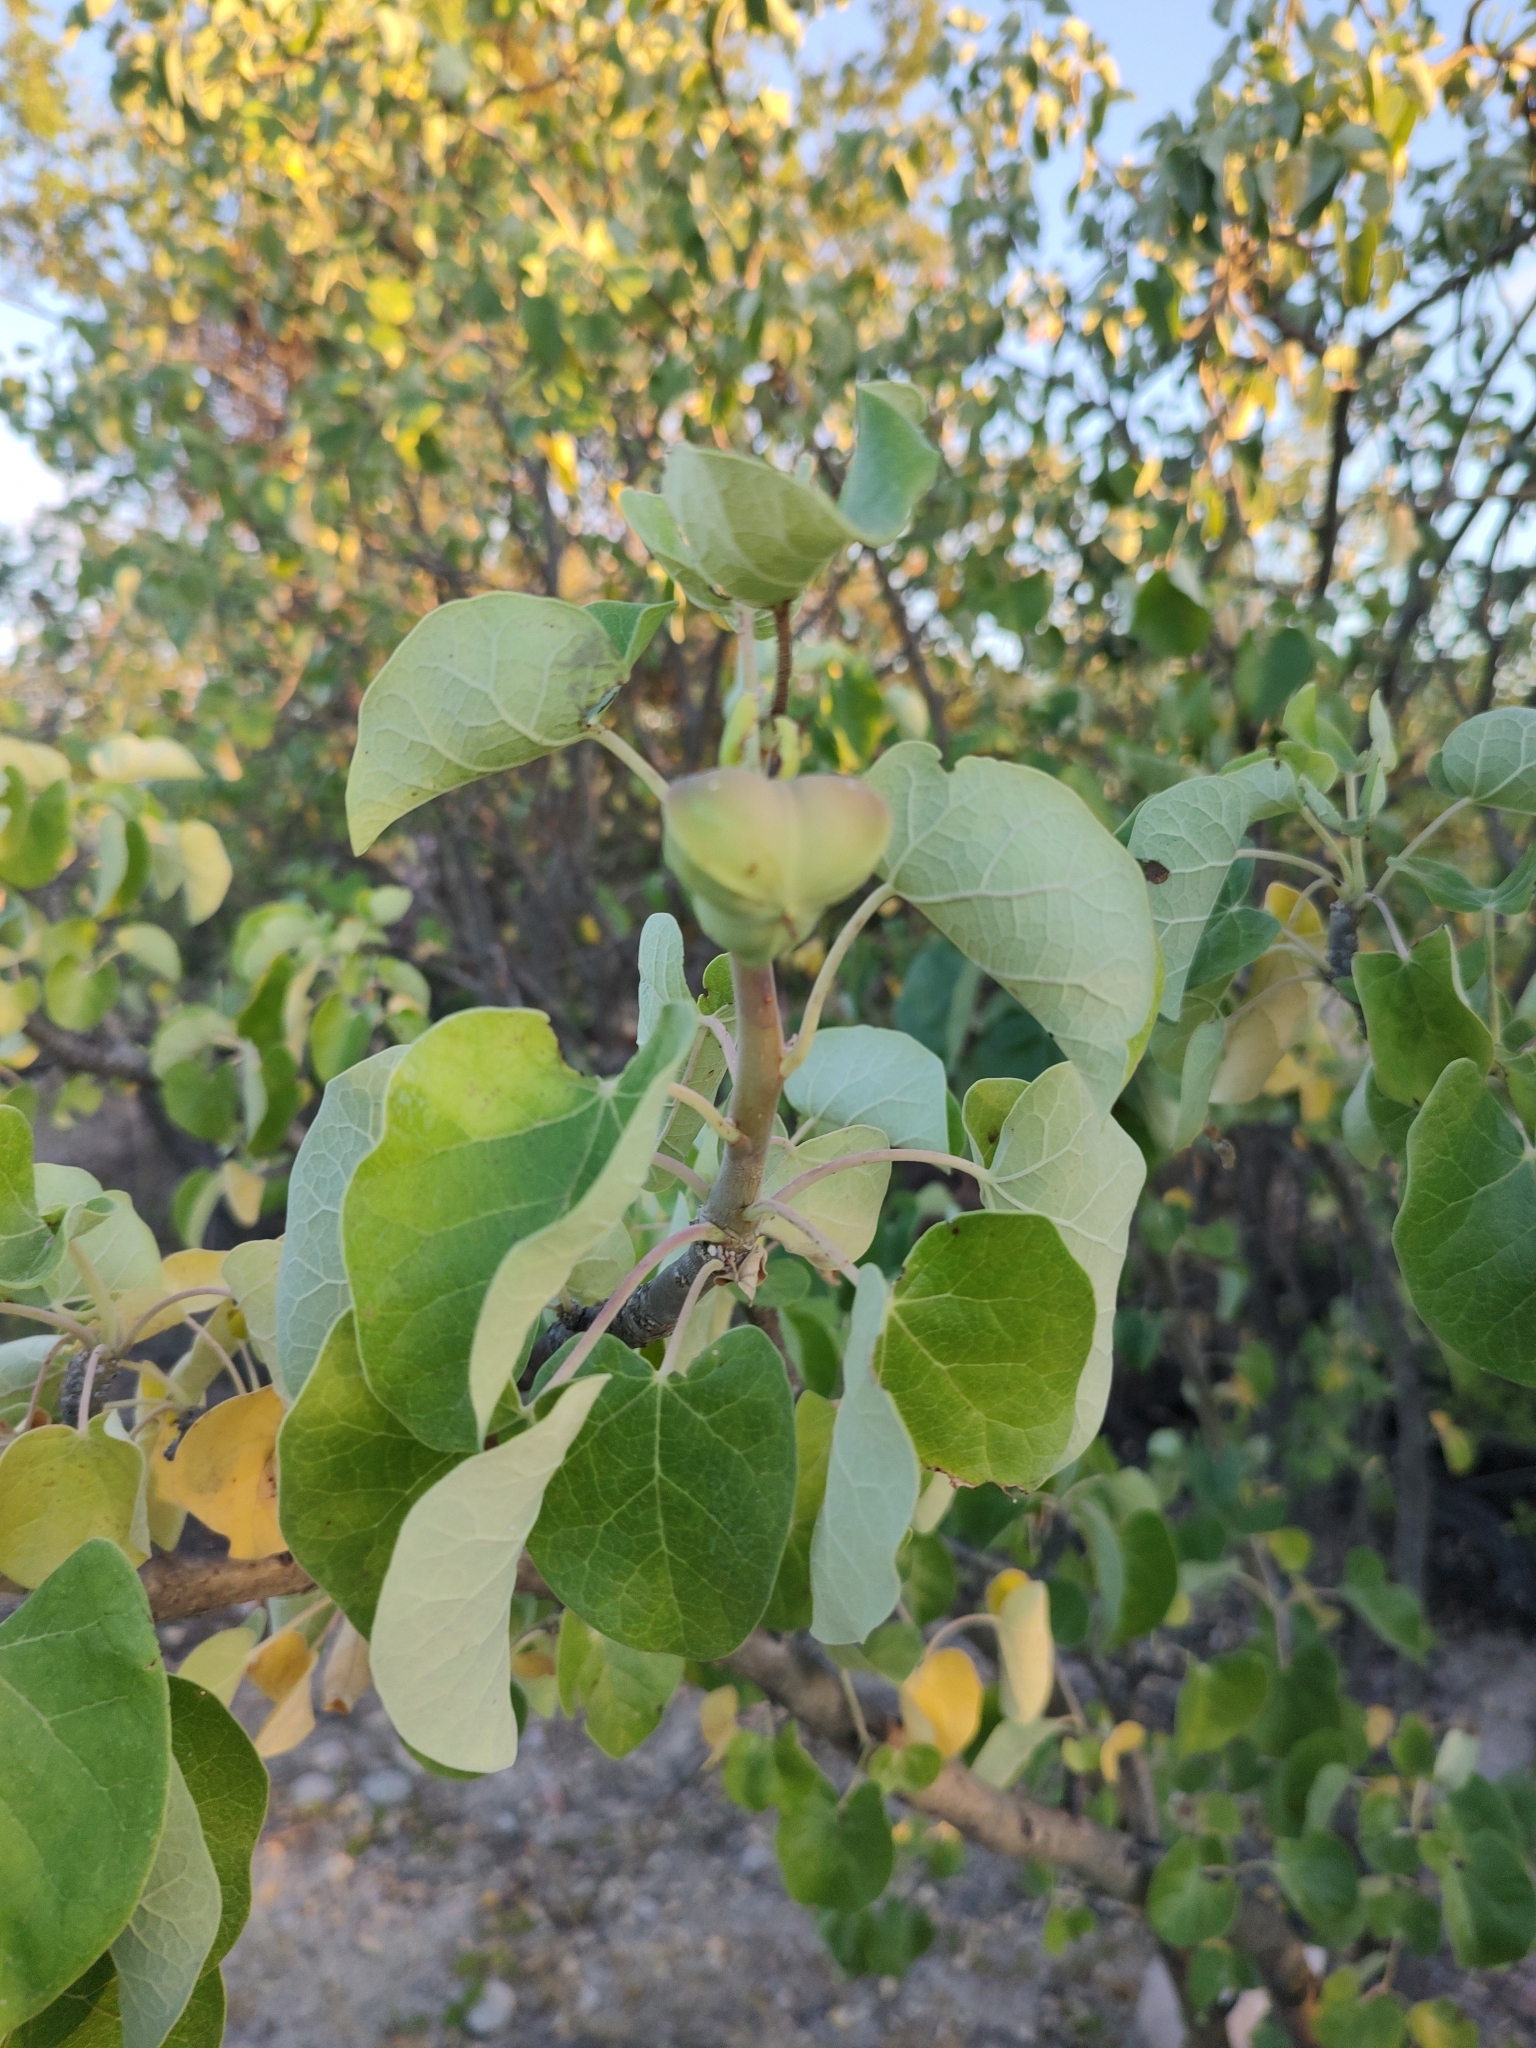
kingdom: Plantae
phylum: Tracheophyta
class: Magnoliopsida
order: Malpighiales
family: Euphorbiaceae
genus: Jatropha
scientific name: Jatropha cinerea
